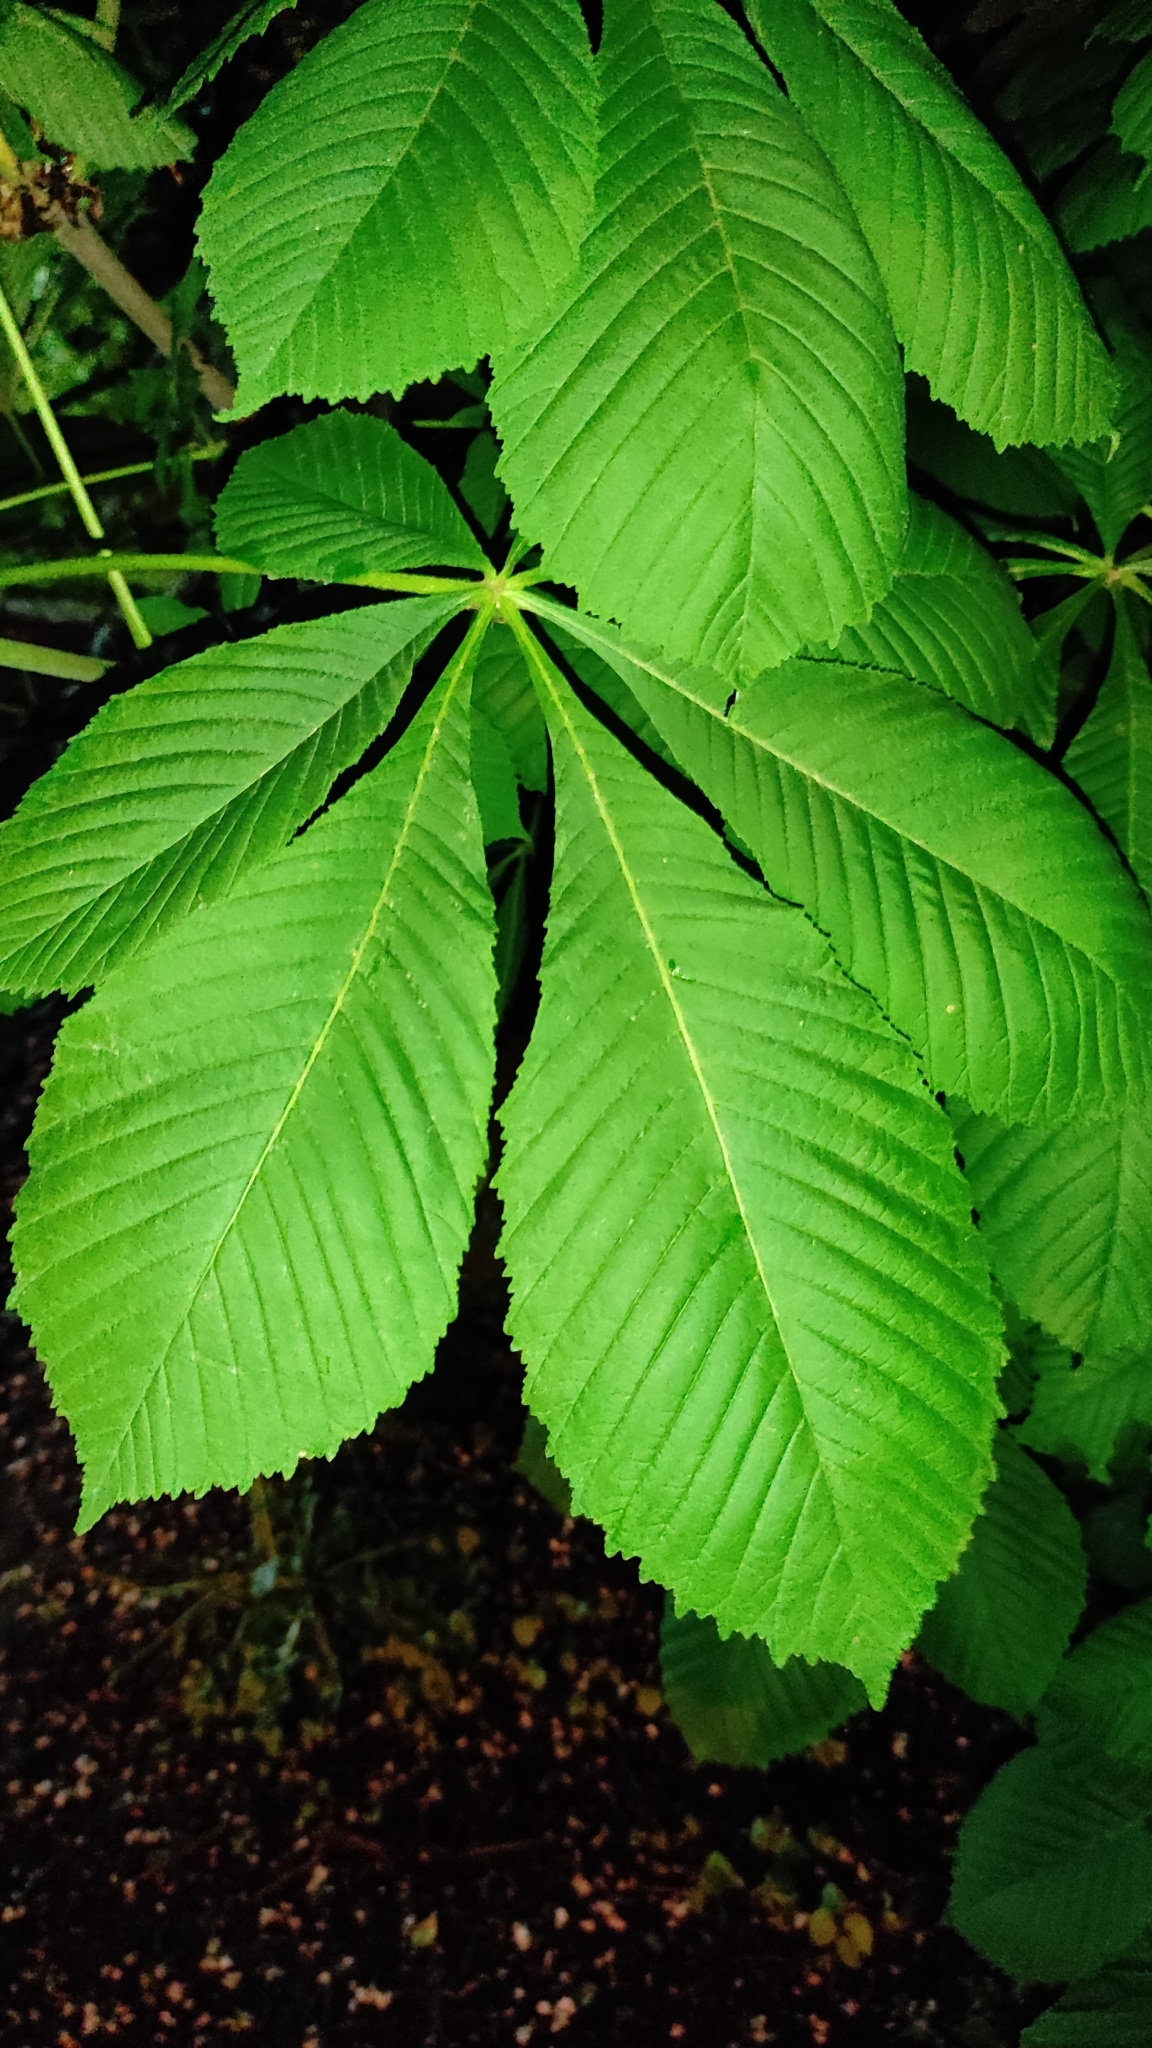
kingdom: Plantae
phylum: Tracheophyta
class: Magnoliopsida
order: Sapindales
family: Sapindaceae
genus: Aesculus
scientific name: Aesculus hippocastanum
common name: Horse-chestnut
